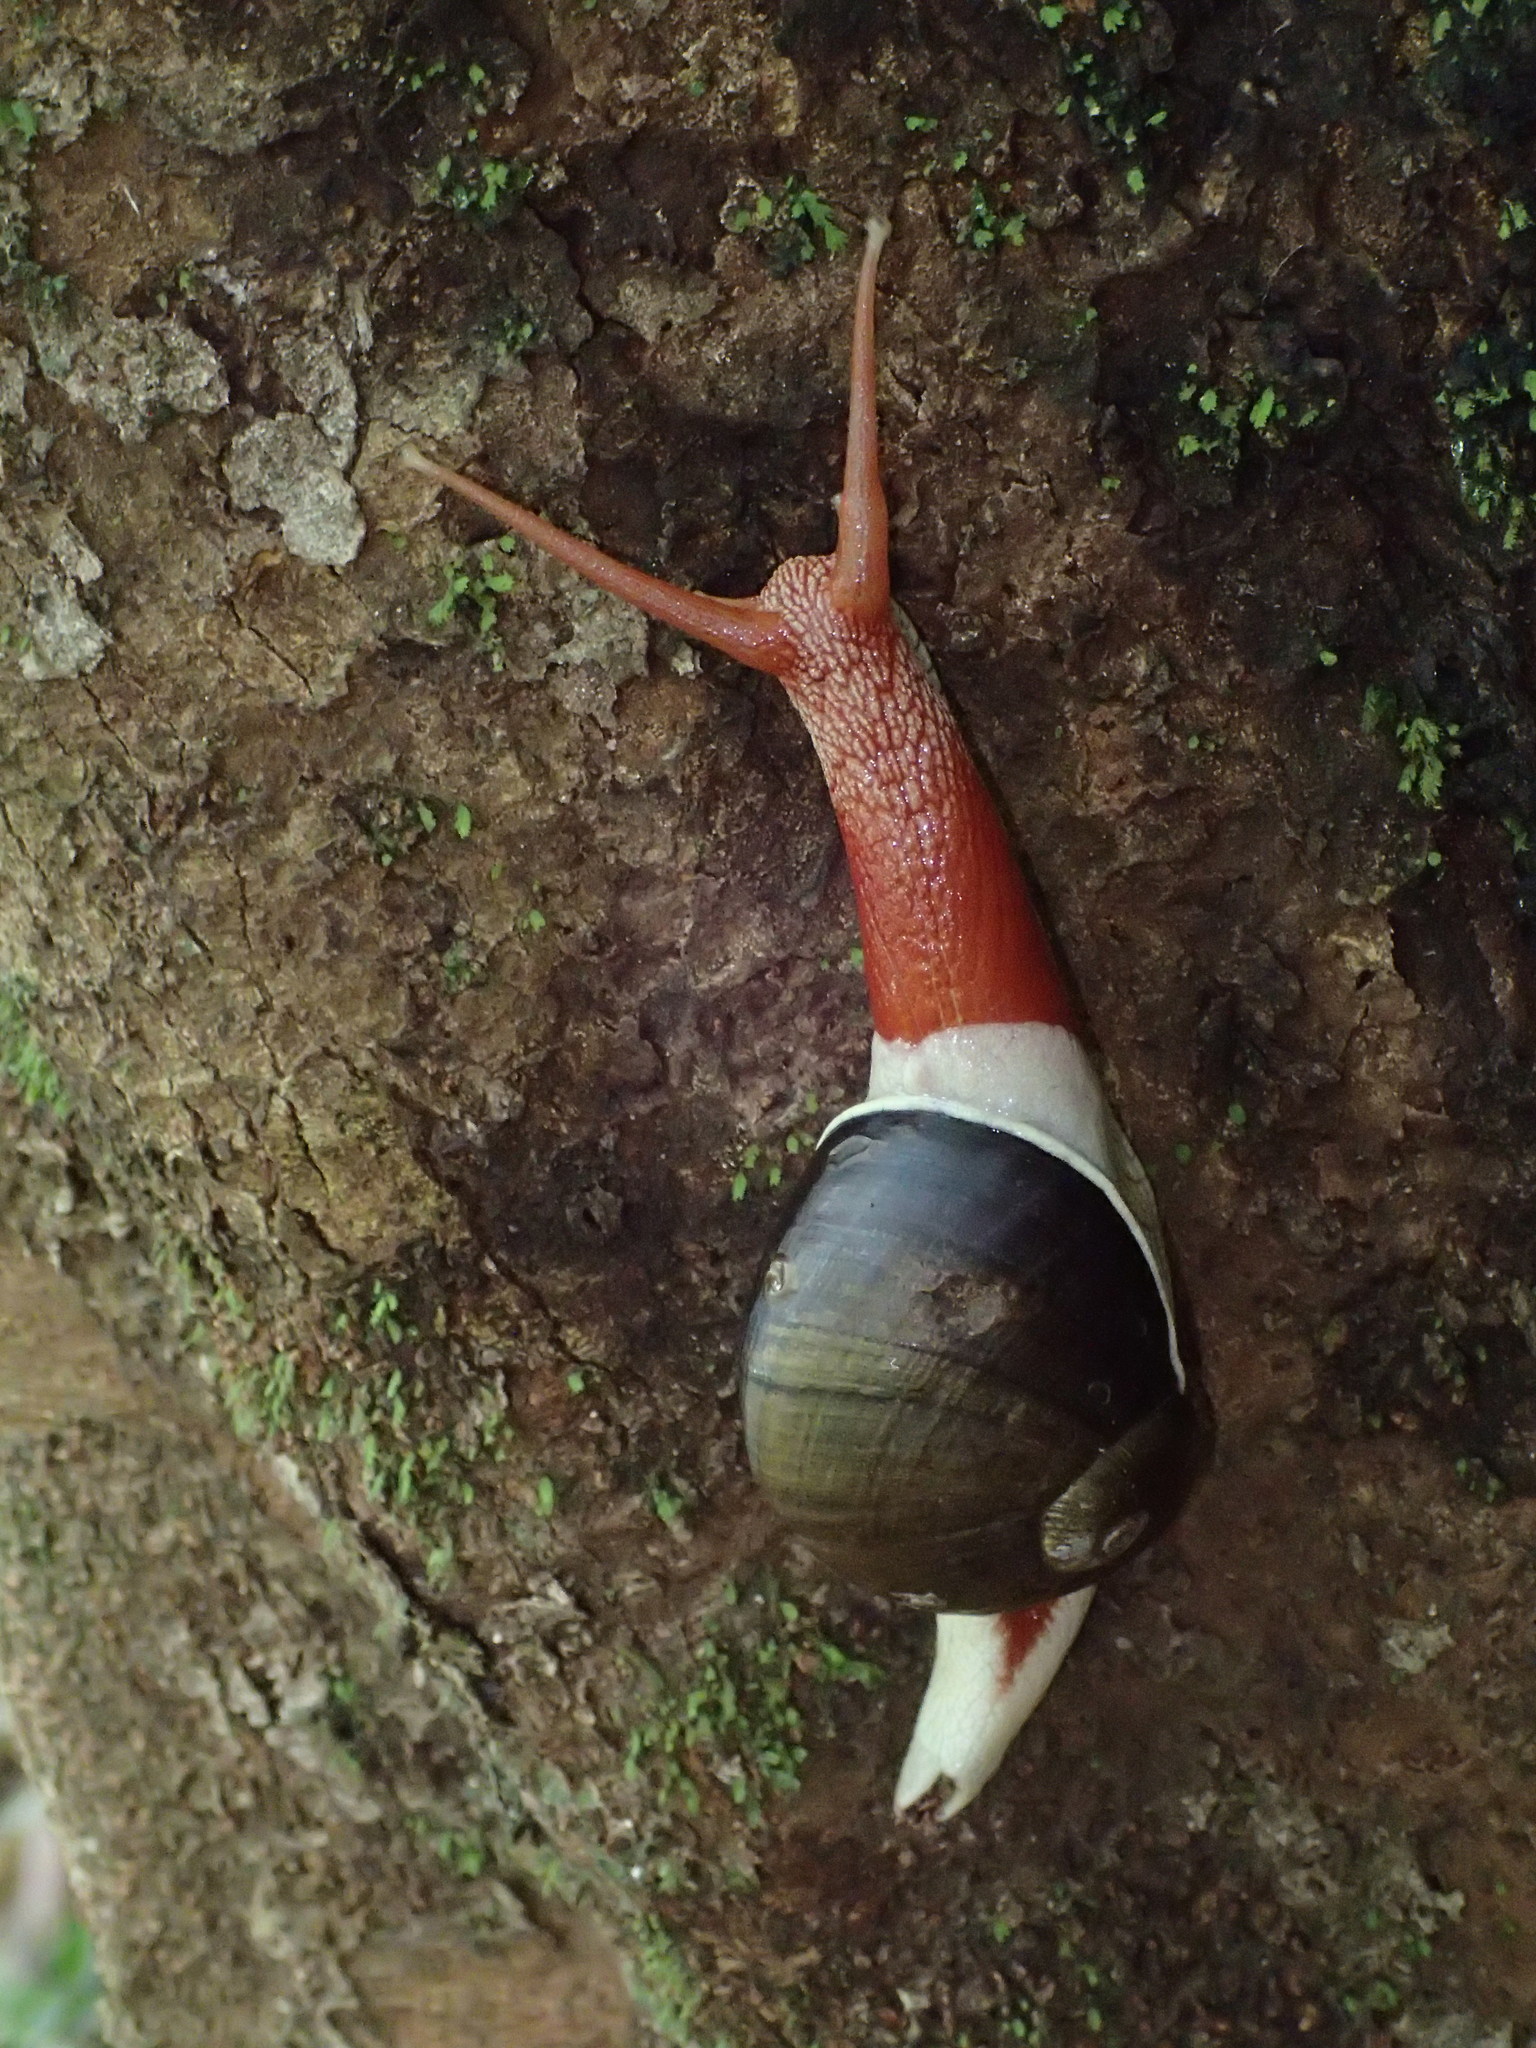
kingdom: Animalia
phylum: Mollusca
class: Gastropoda
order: Stylommatophora
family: Ariophantidae
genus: Indrella
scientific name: Indrella ampulla
